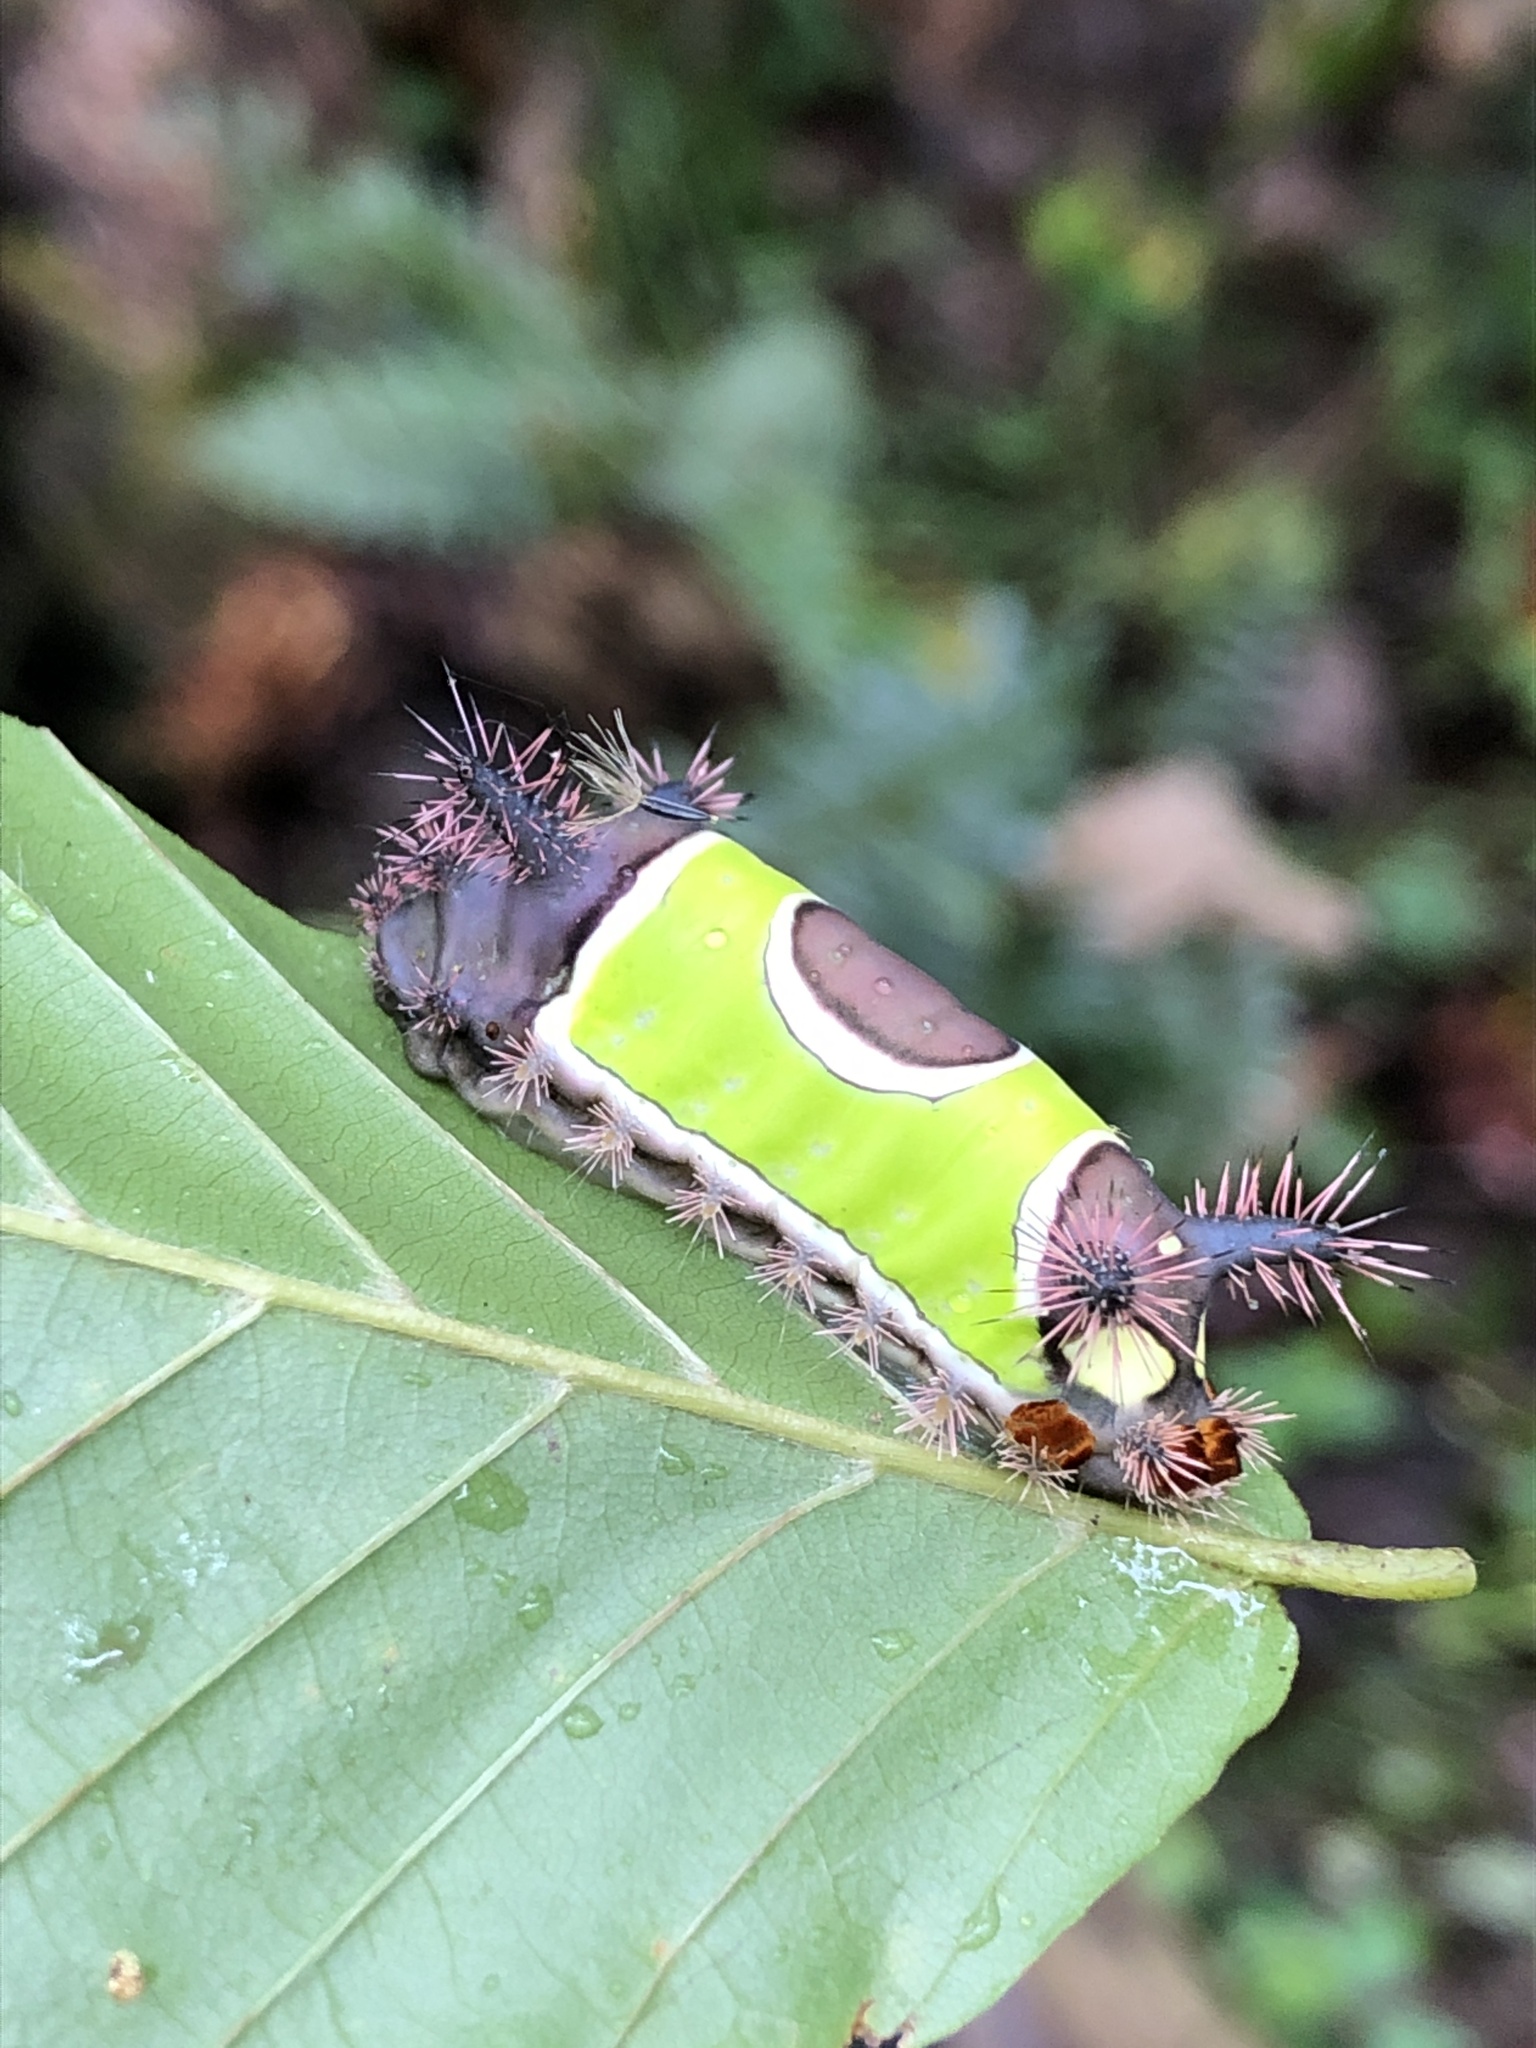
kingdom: Animalia
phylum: Arthropoda
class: Insecta
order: Lepidoptera
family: Limacodidae
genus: Acharia
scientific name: Acharia stimulea
